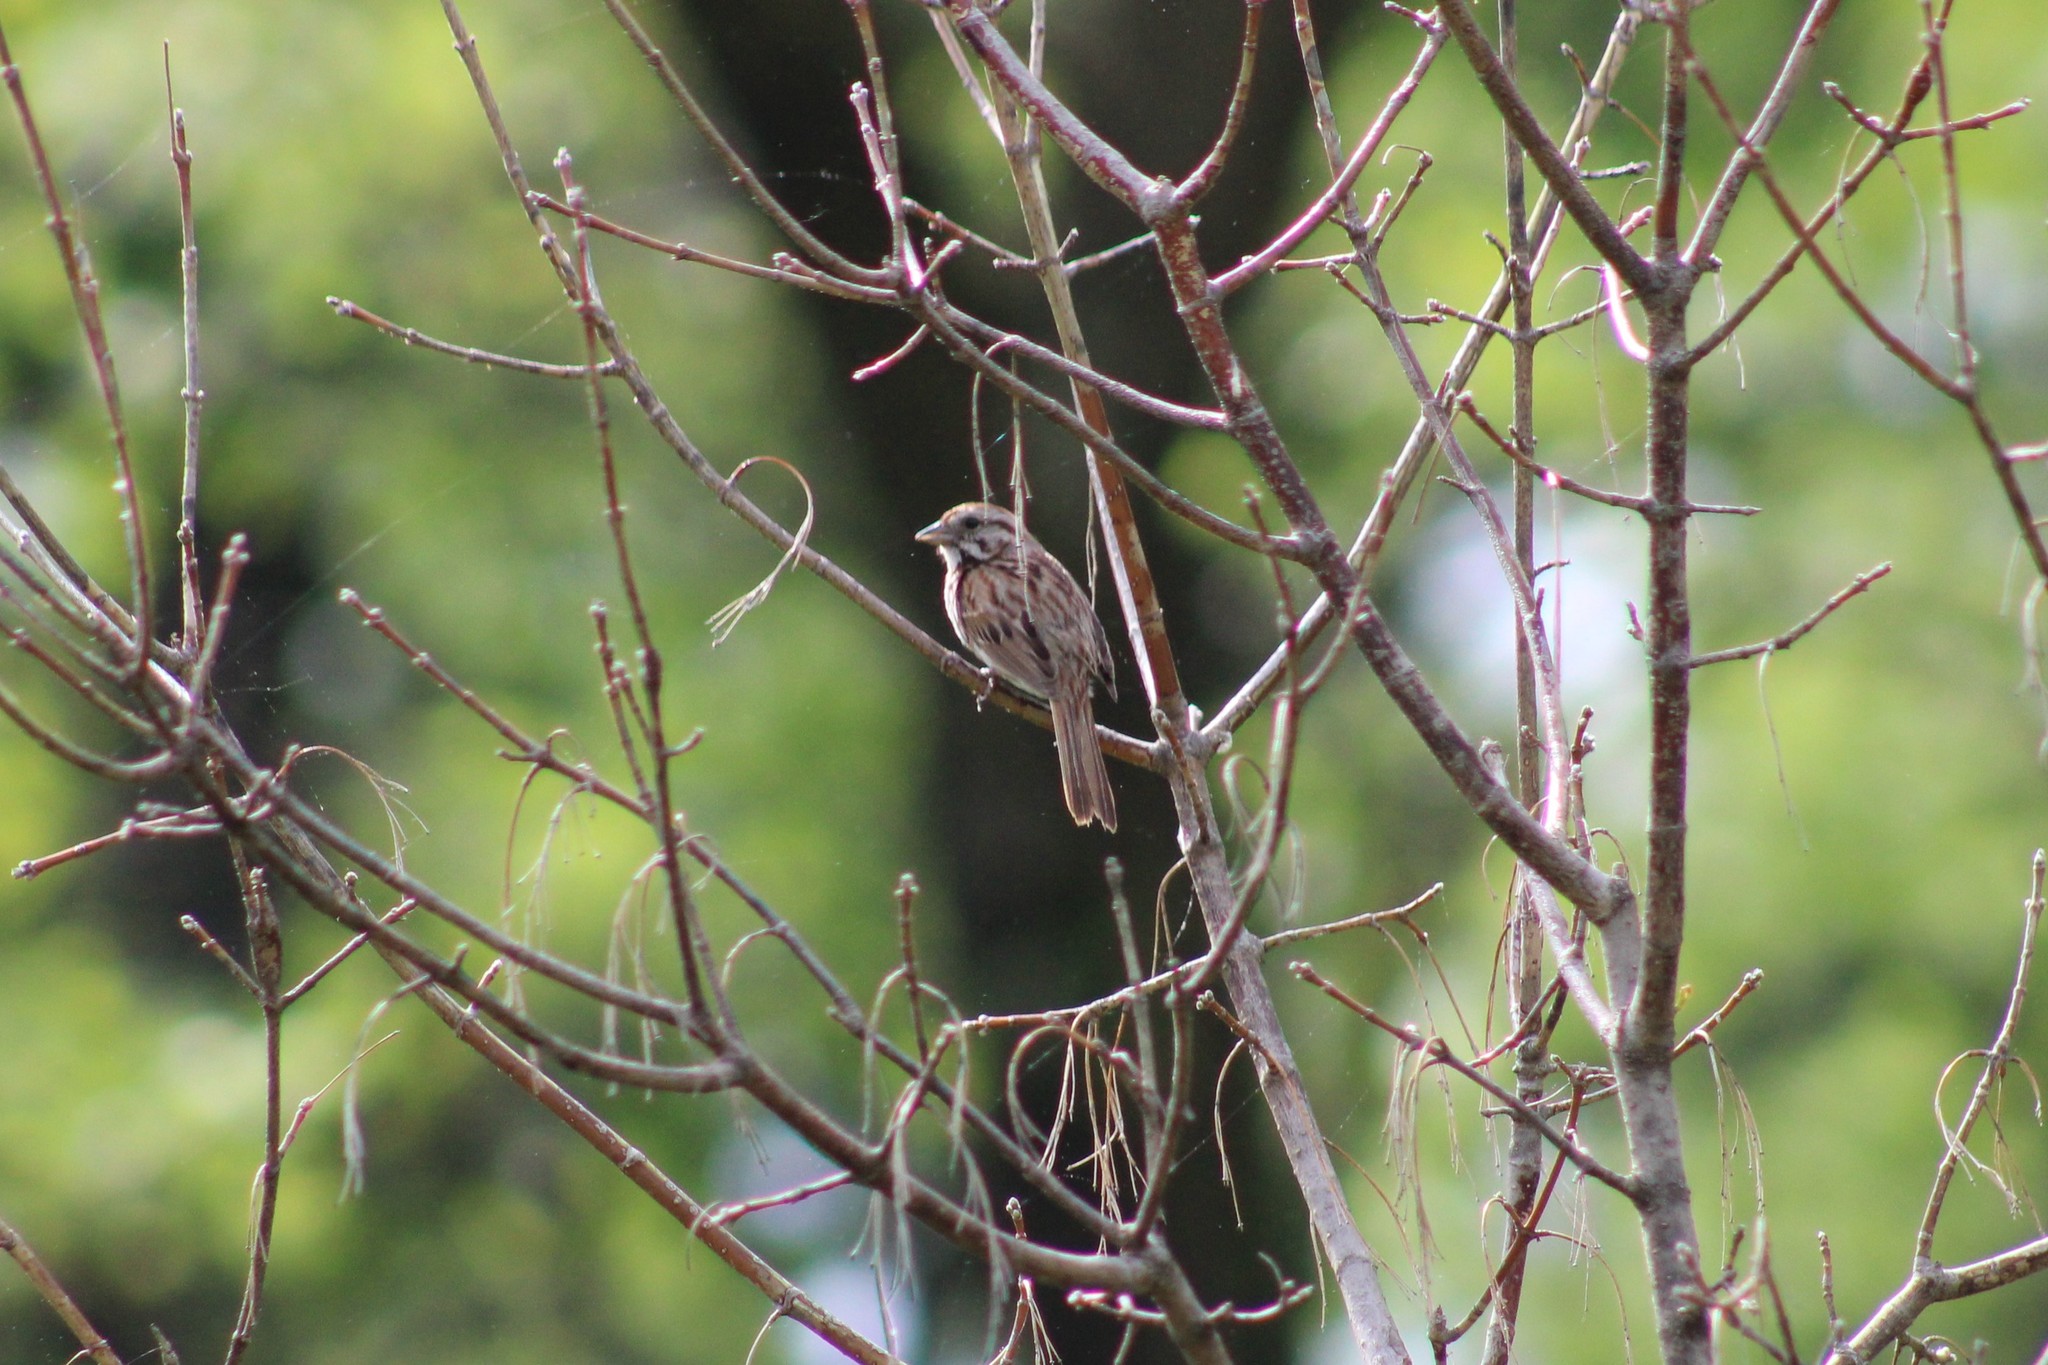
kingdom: Animalia
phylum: Chordata
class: Aves
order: Passeriformes
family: Passerellidae
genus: Melospiza
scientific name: Melospiza melodia
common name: Song sparrow
